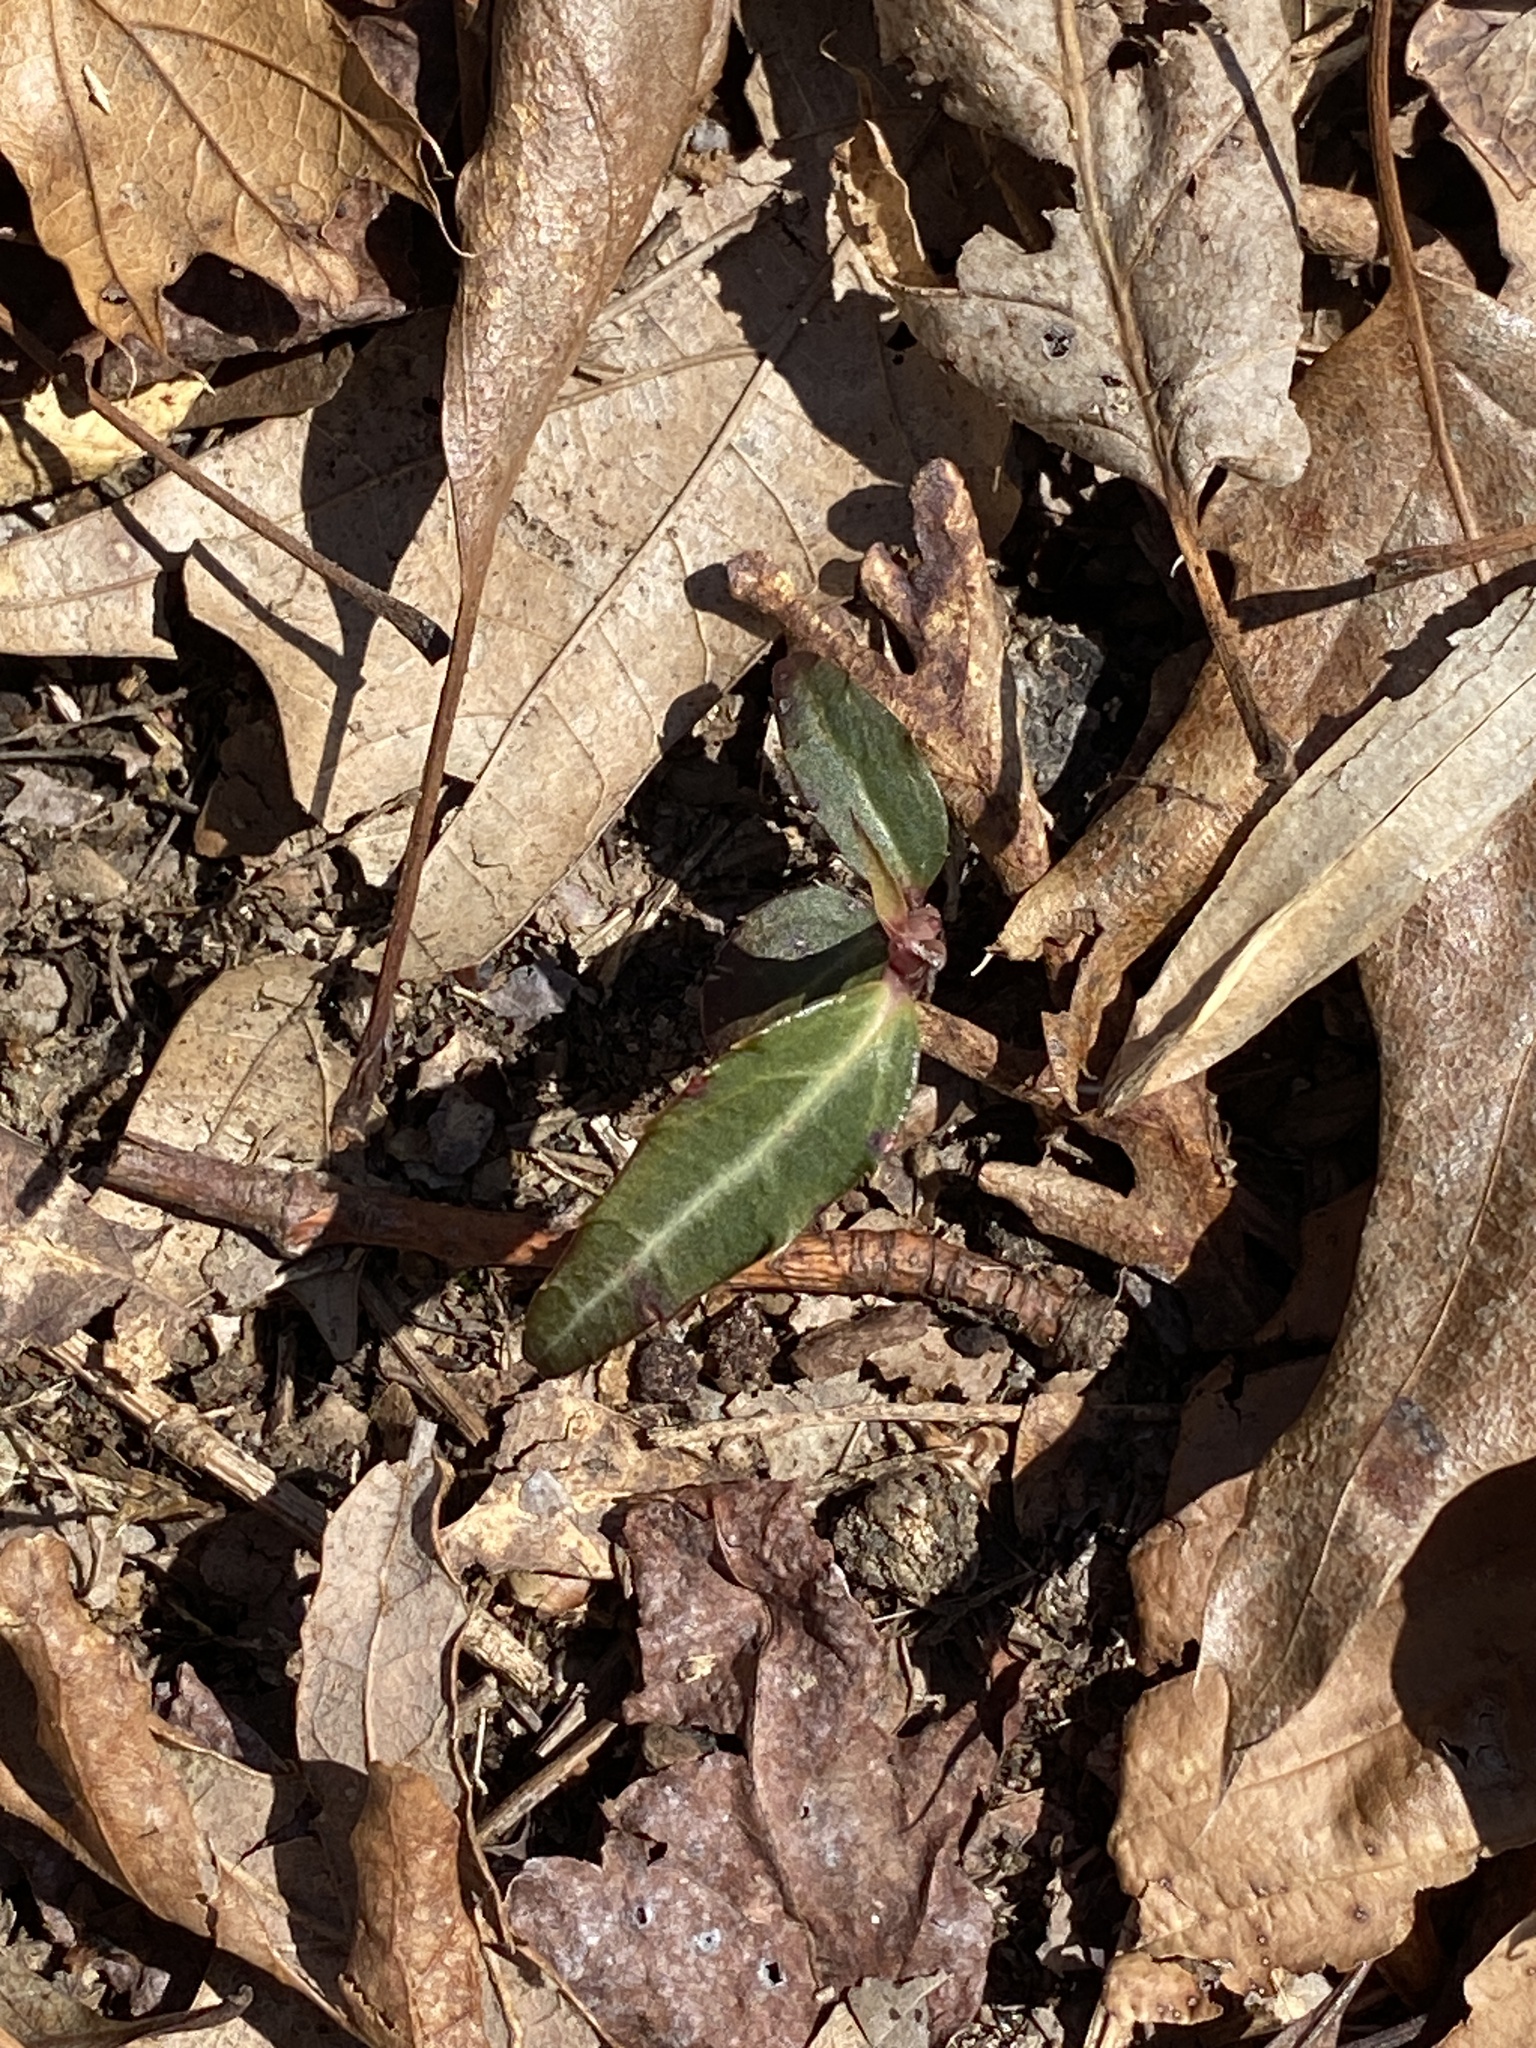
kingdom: Plantae
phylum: Tracheophyta
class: Magnoliopsida
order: Ericales
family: Ericaceae
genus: Chimaphila
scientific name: Chimaphila maculata
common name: Spotted pipsissewa
